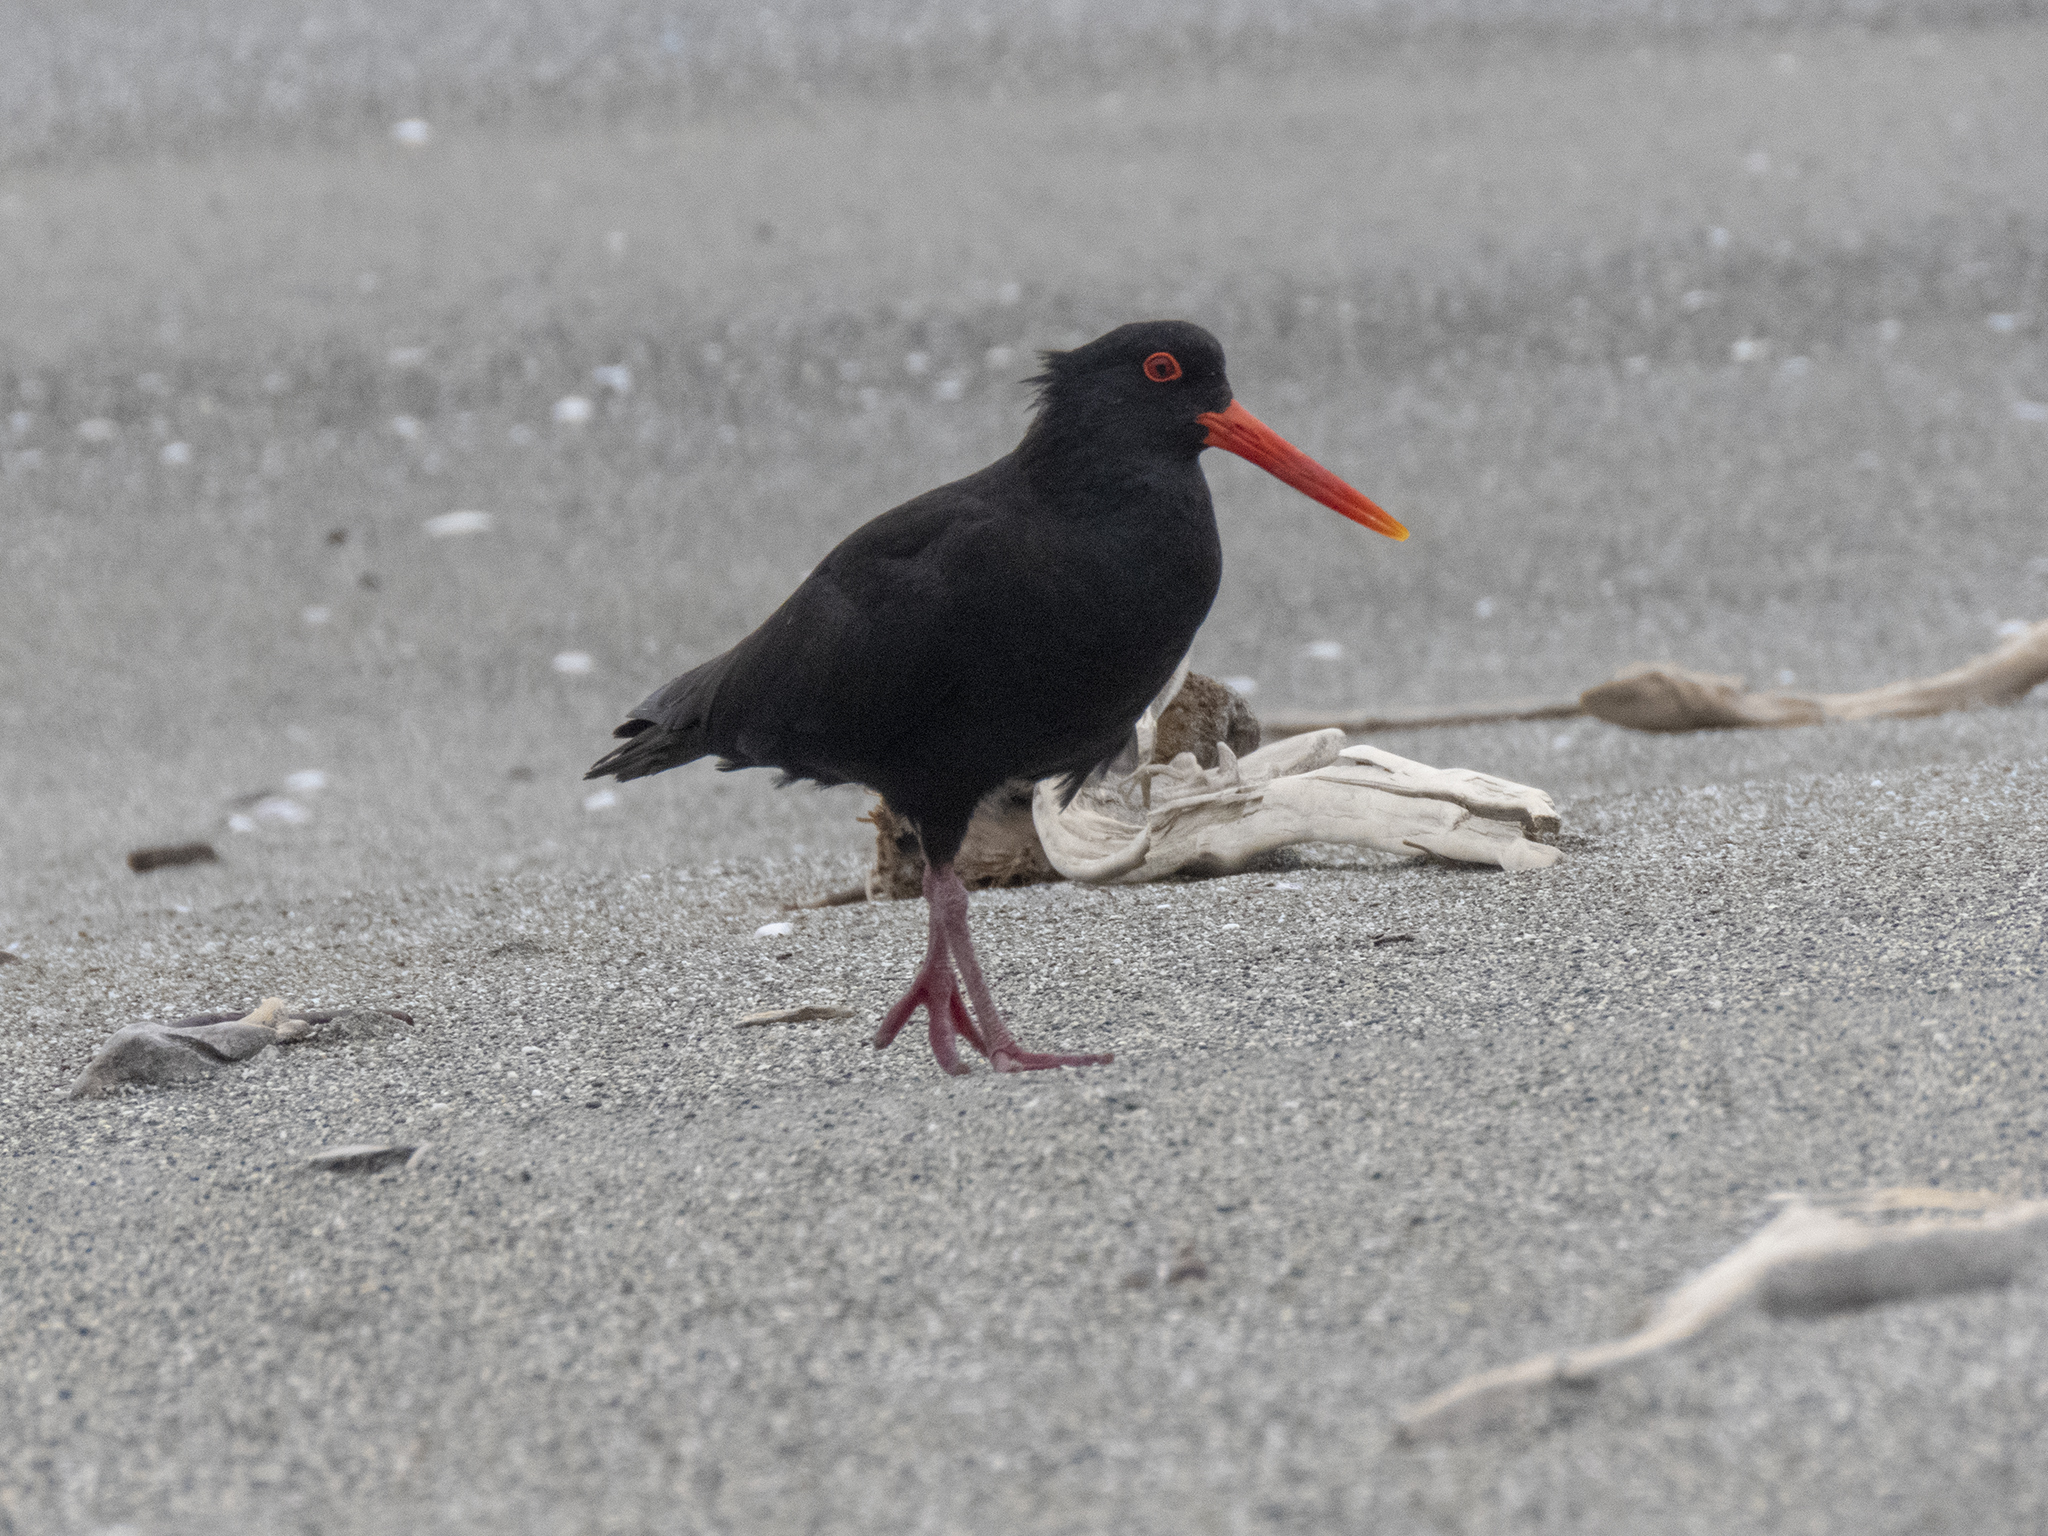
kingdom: Animalia
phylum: Chordata
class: Aves
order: Charadriiformes
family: Haematopodidae
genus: Haematopus
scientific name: Haematopus unicolor
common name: Variable oystercatcher
